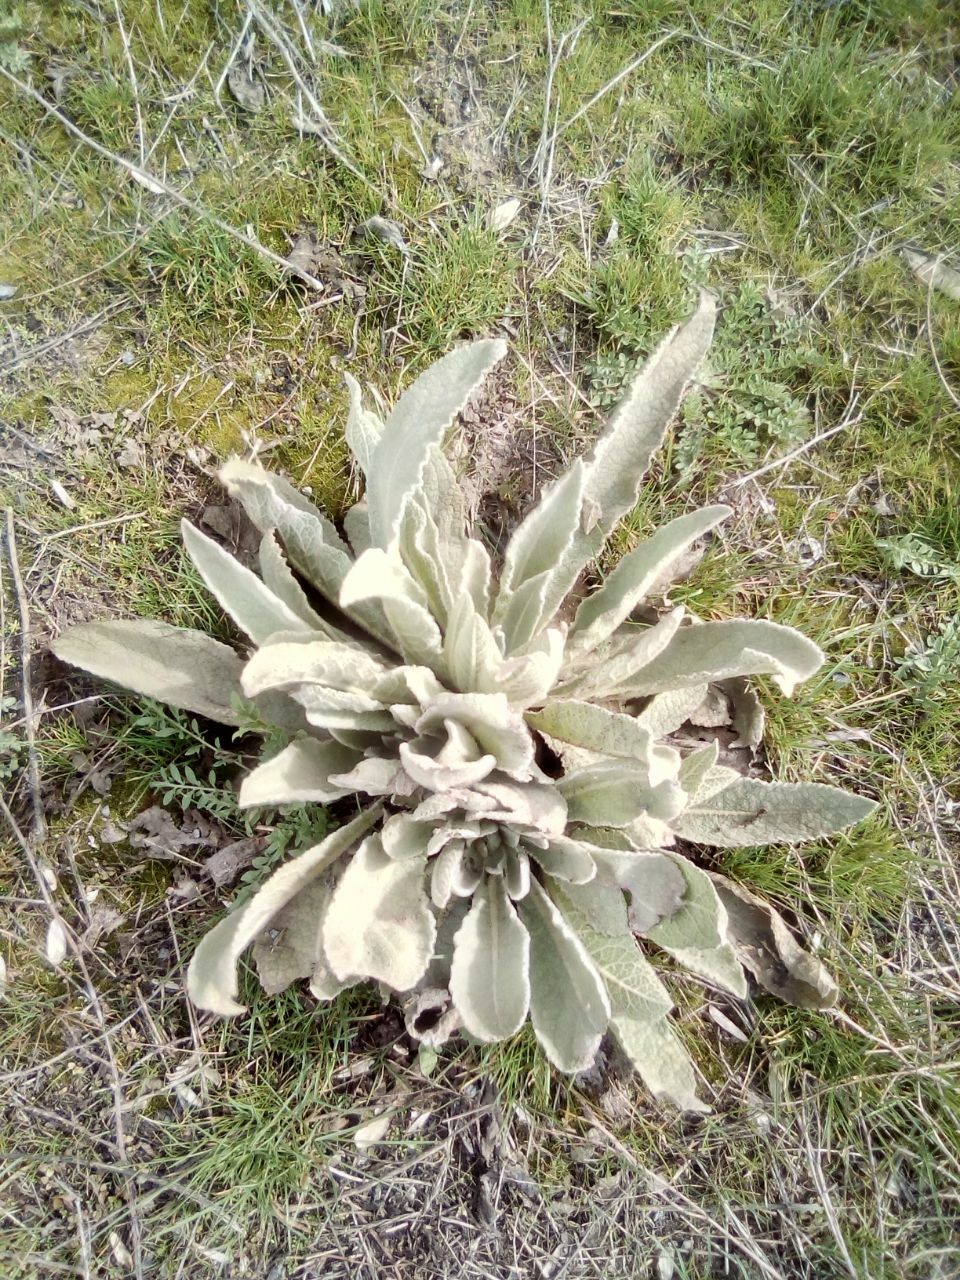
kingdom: Plantae
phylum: Tracheophyta
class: Magnoliopsida
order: Lamiales
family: Scrophulariaceae
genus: Verbascum
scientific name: Verbascum songaricum
